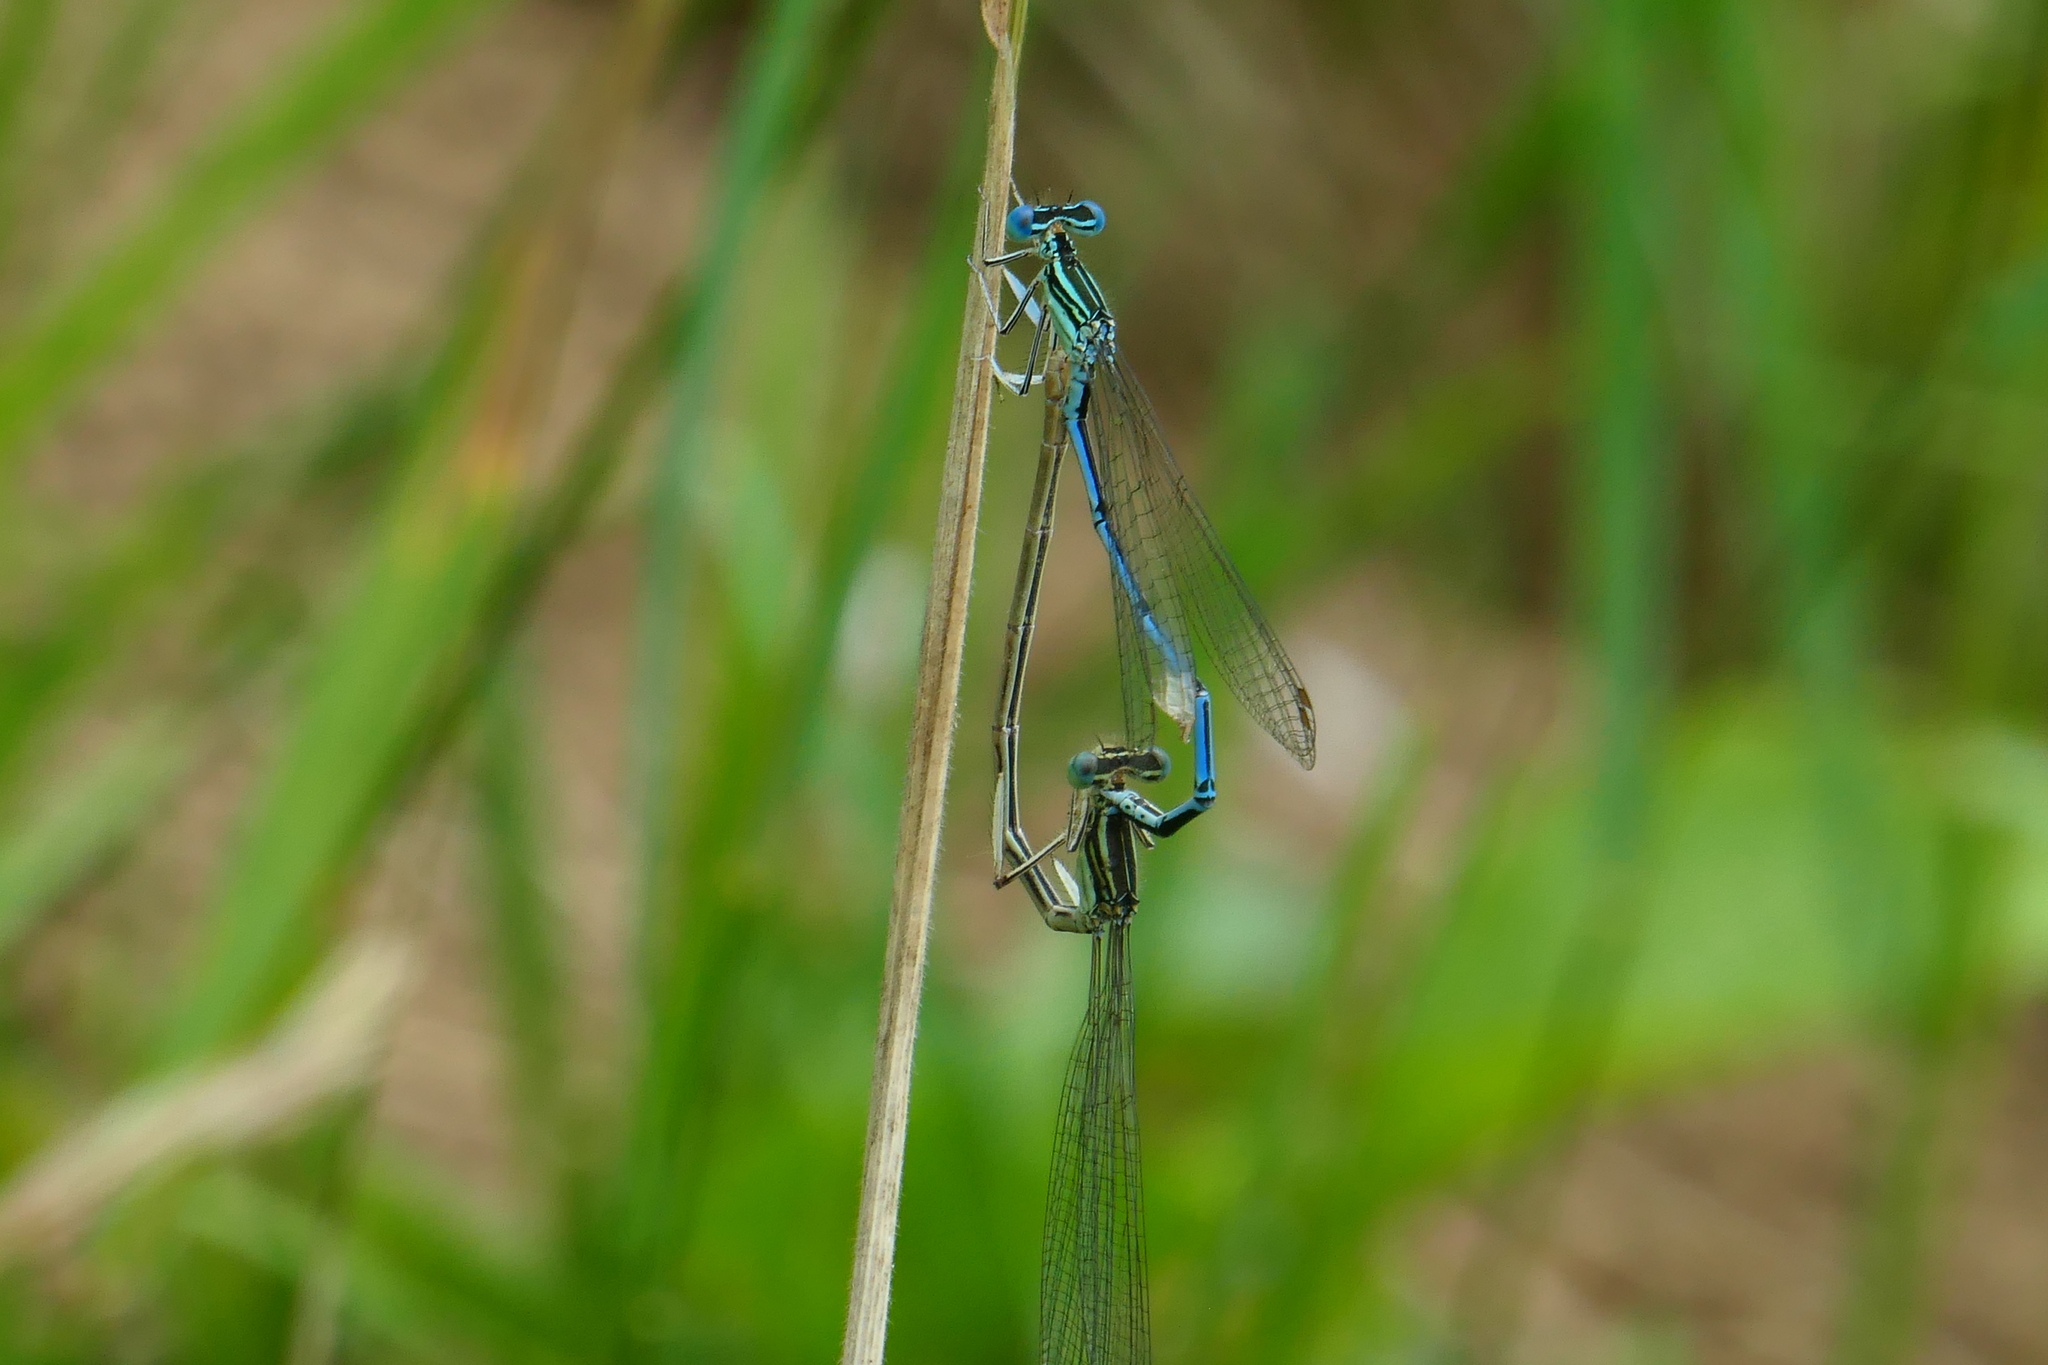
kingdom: Animalia
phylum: Arthropoda
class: Insecta
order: Odonata
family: Platycnemididae
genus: Platycnemis
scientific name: Platycnemis pennipes
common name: White-legged damselfly
